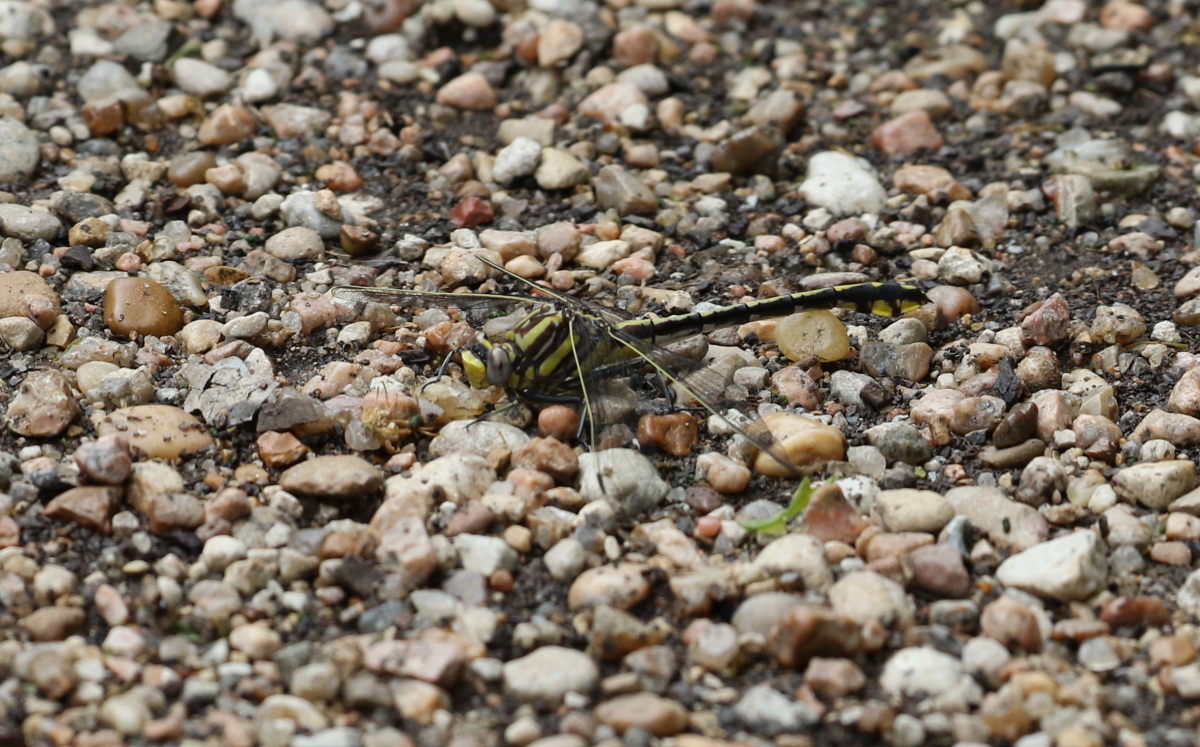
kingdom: Animalia
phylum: Arthropoda
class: Insecta
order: Odonata
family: Gomphidae
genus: Gomphurus
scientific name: Gomphurus externus
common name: Plains clubtail
